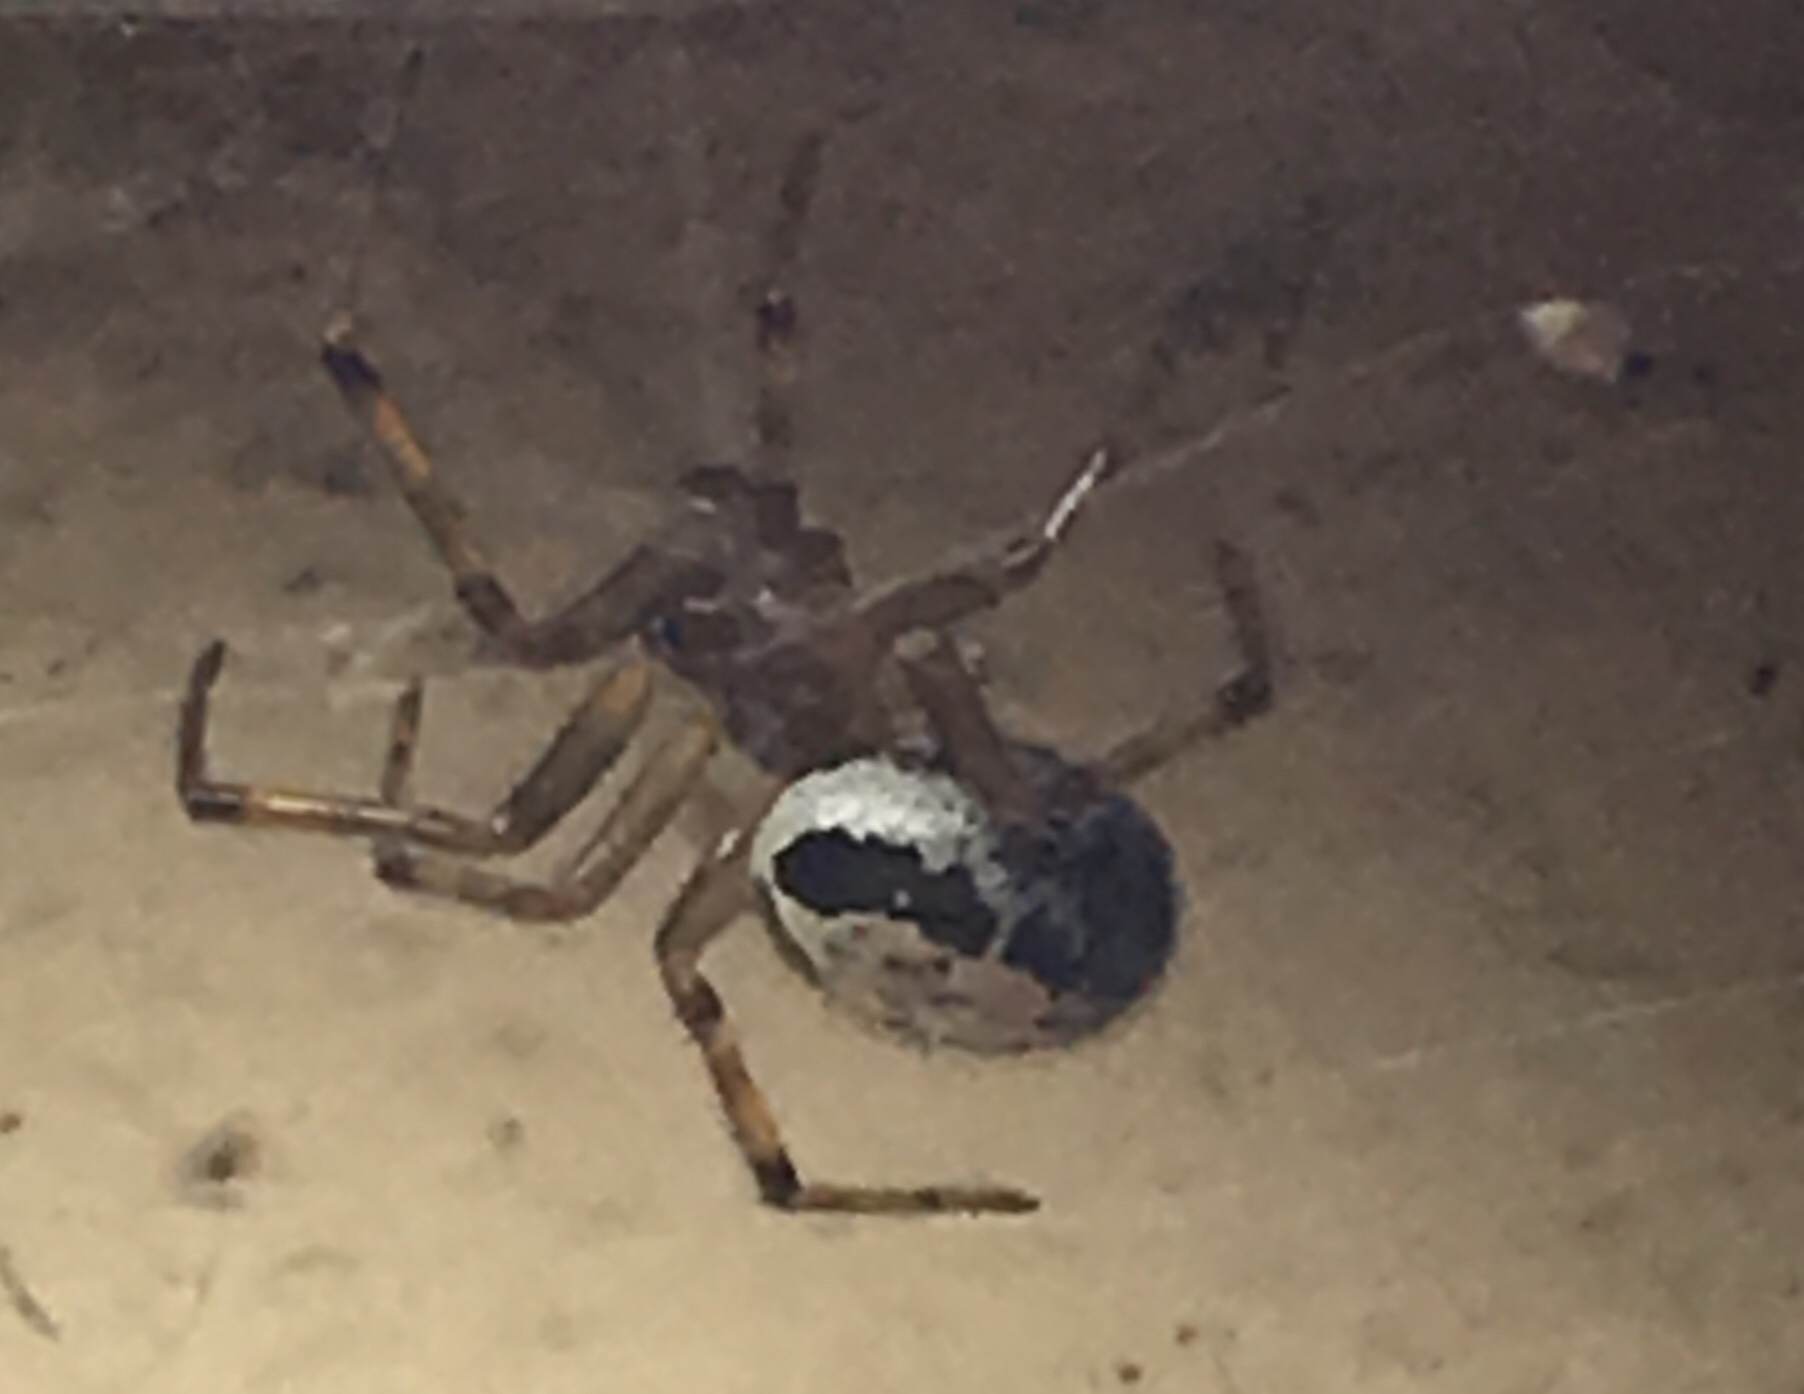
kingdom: Animalia
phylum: Arthropoda
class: Arachnida
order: Araneae
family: Theridiidae
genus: Steatoda
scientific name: Steatoda nobilis
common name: Cobweb weaver
